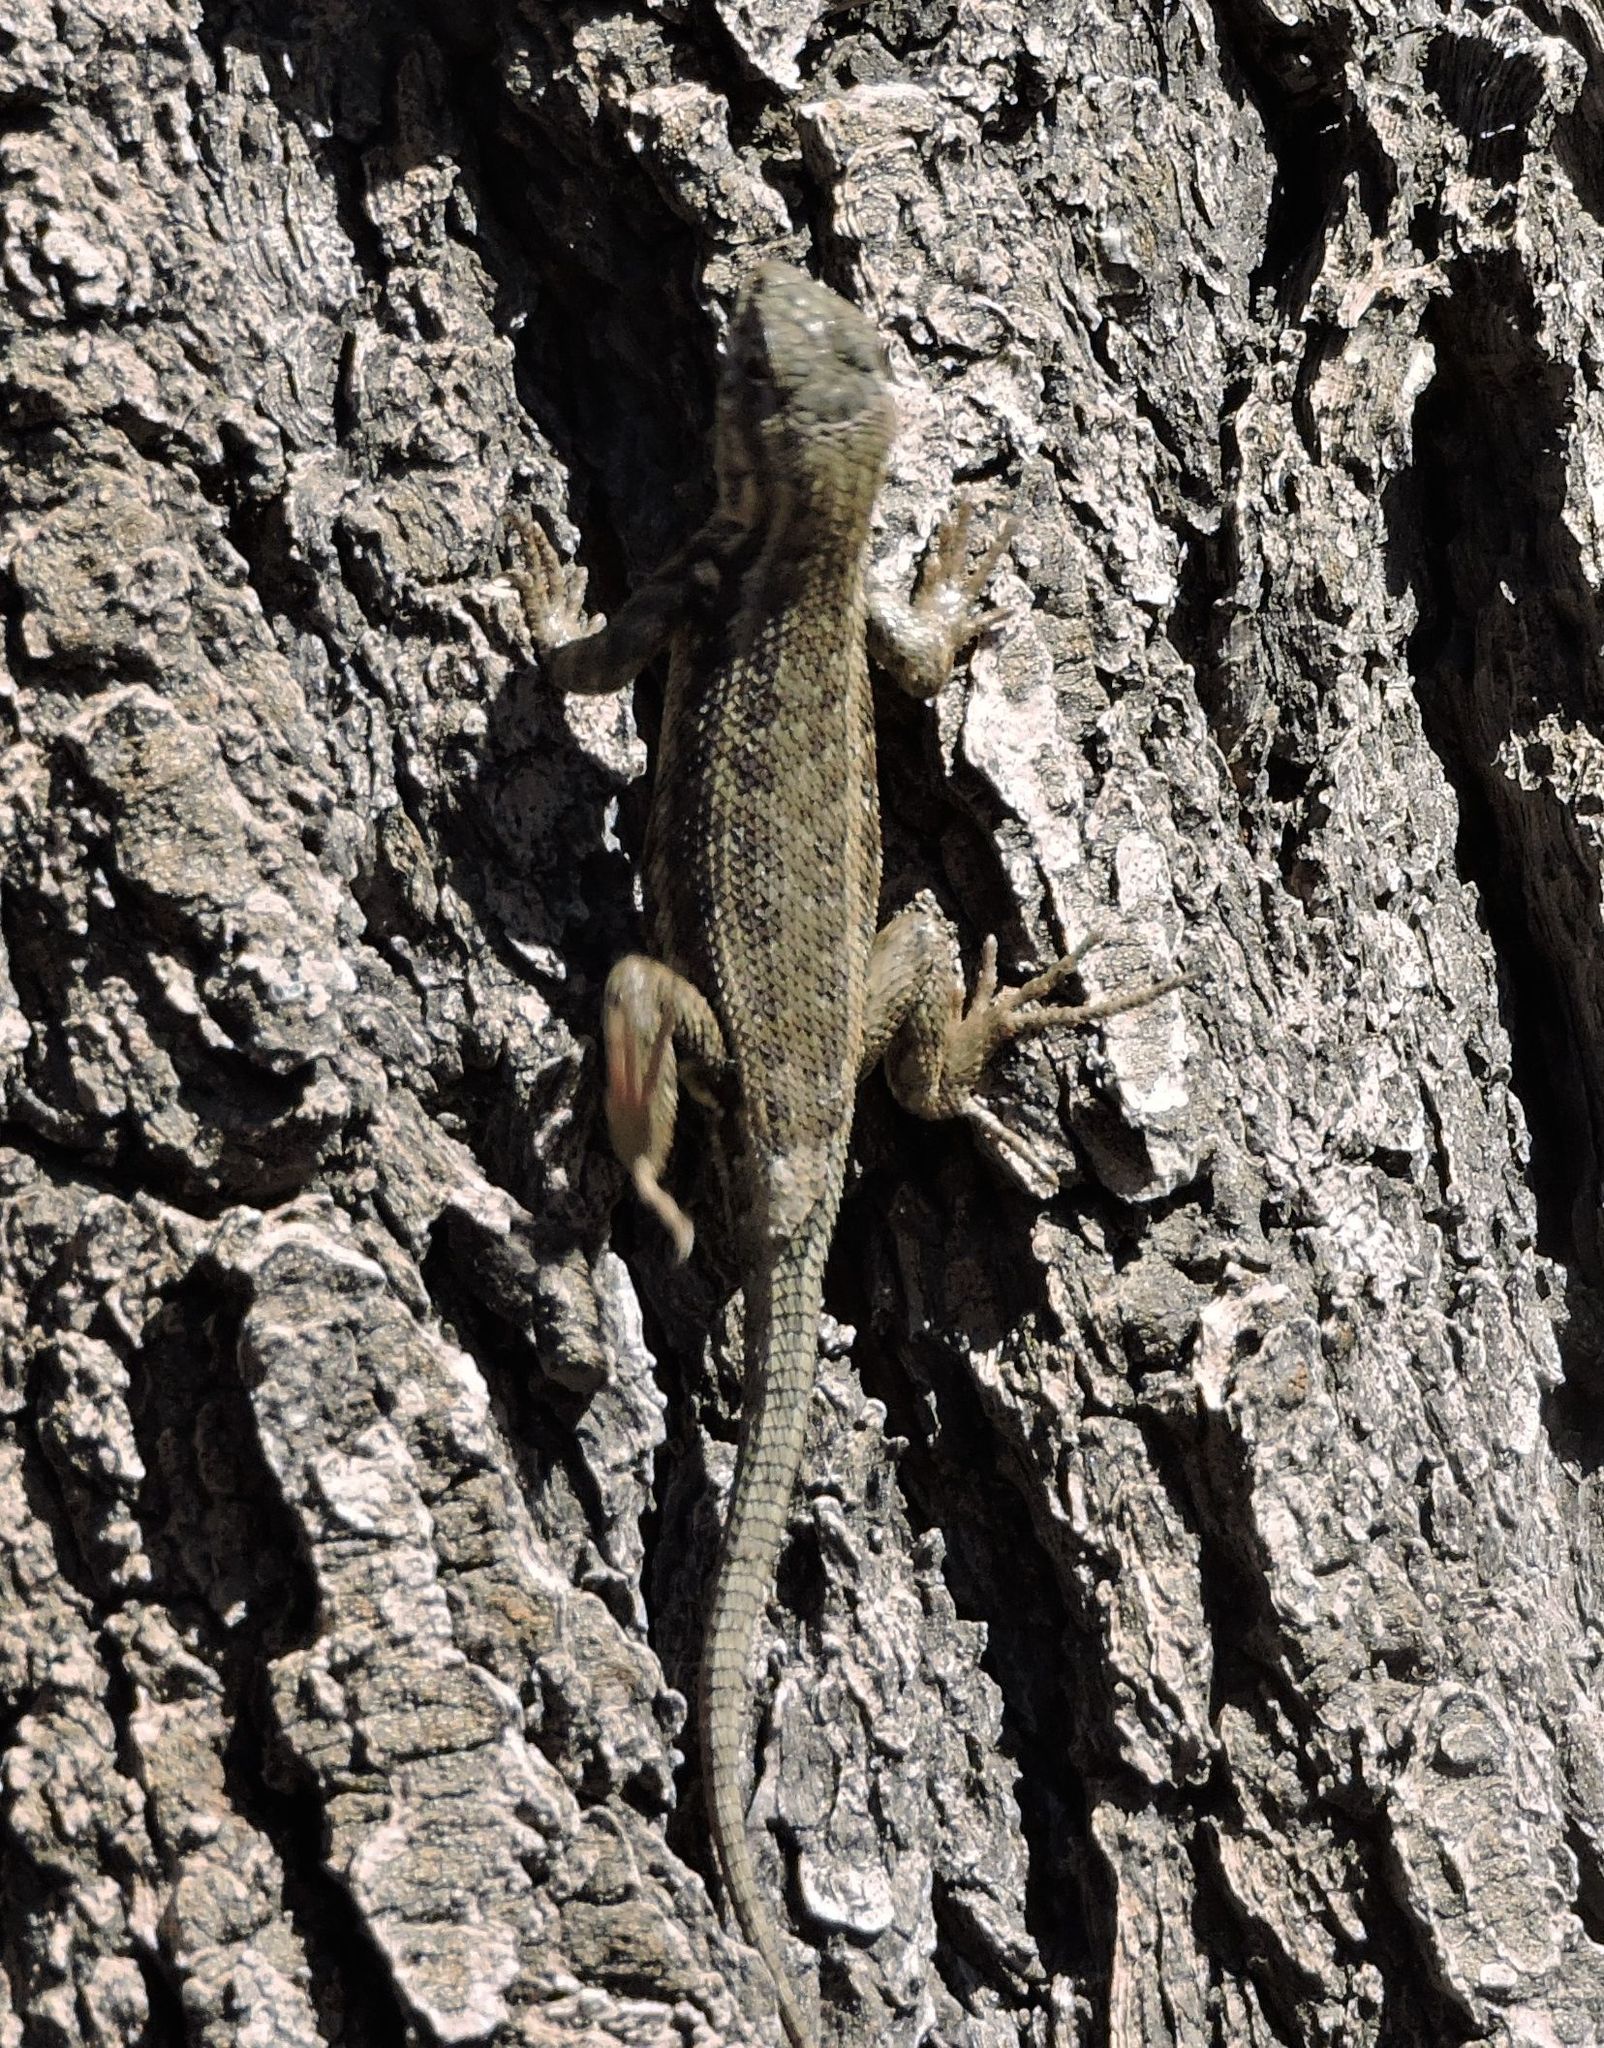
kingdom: Animalia
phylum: Chordata
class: Squamata
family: Phrynosomatidae
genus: Sceloporus
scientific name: Sceloporus graciosus
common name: Sagebrush lizard
